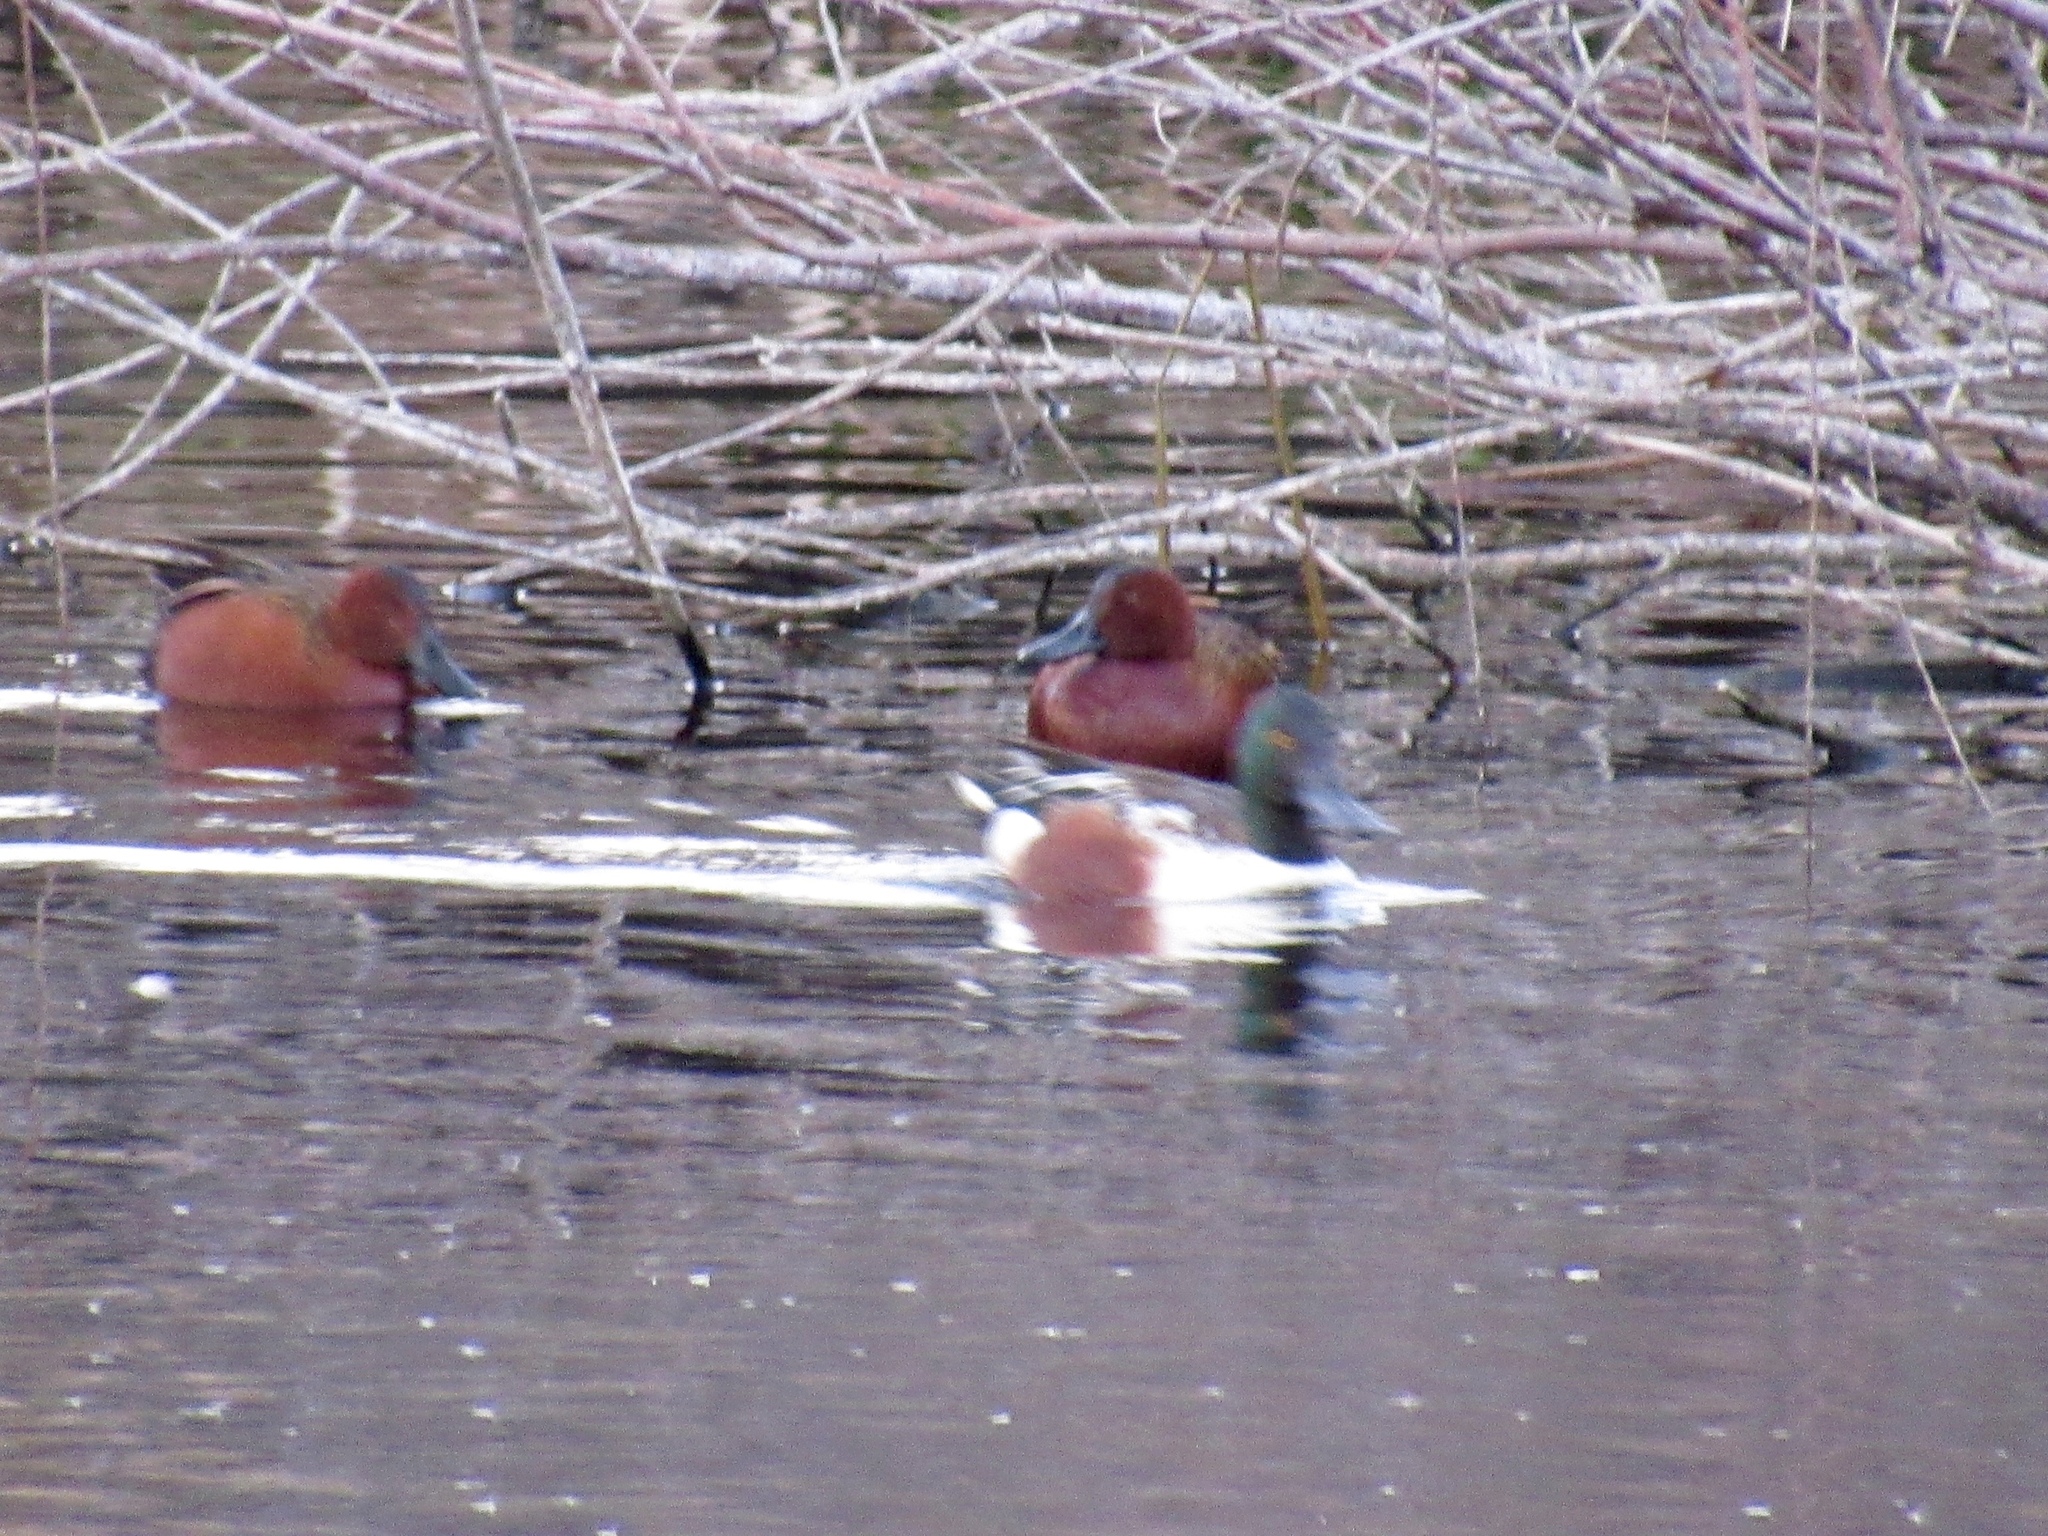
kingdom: Animalia
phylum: Chordata
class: Aves
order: Anseriformes
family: Anatidae
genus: Spatula
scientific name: Spatula clypeata
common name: Northern shoveler
